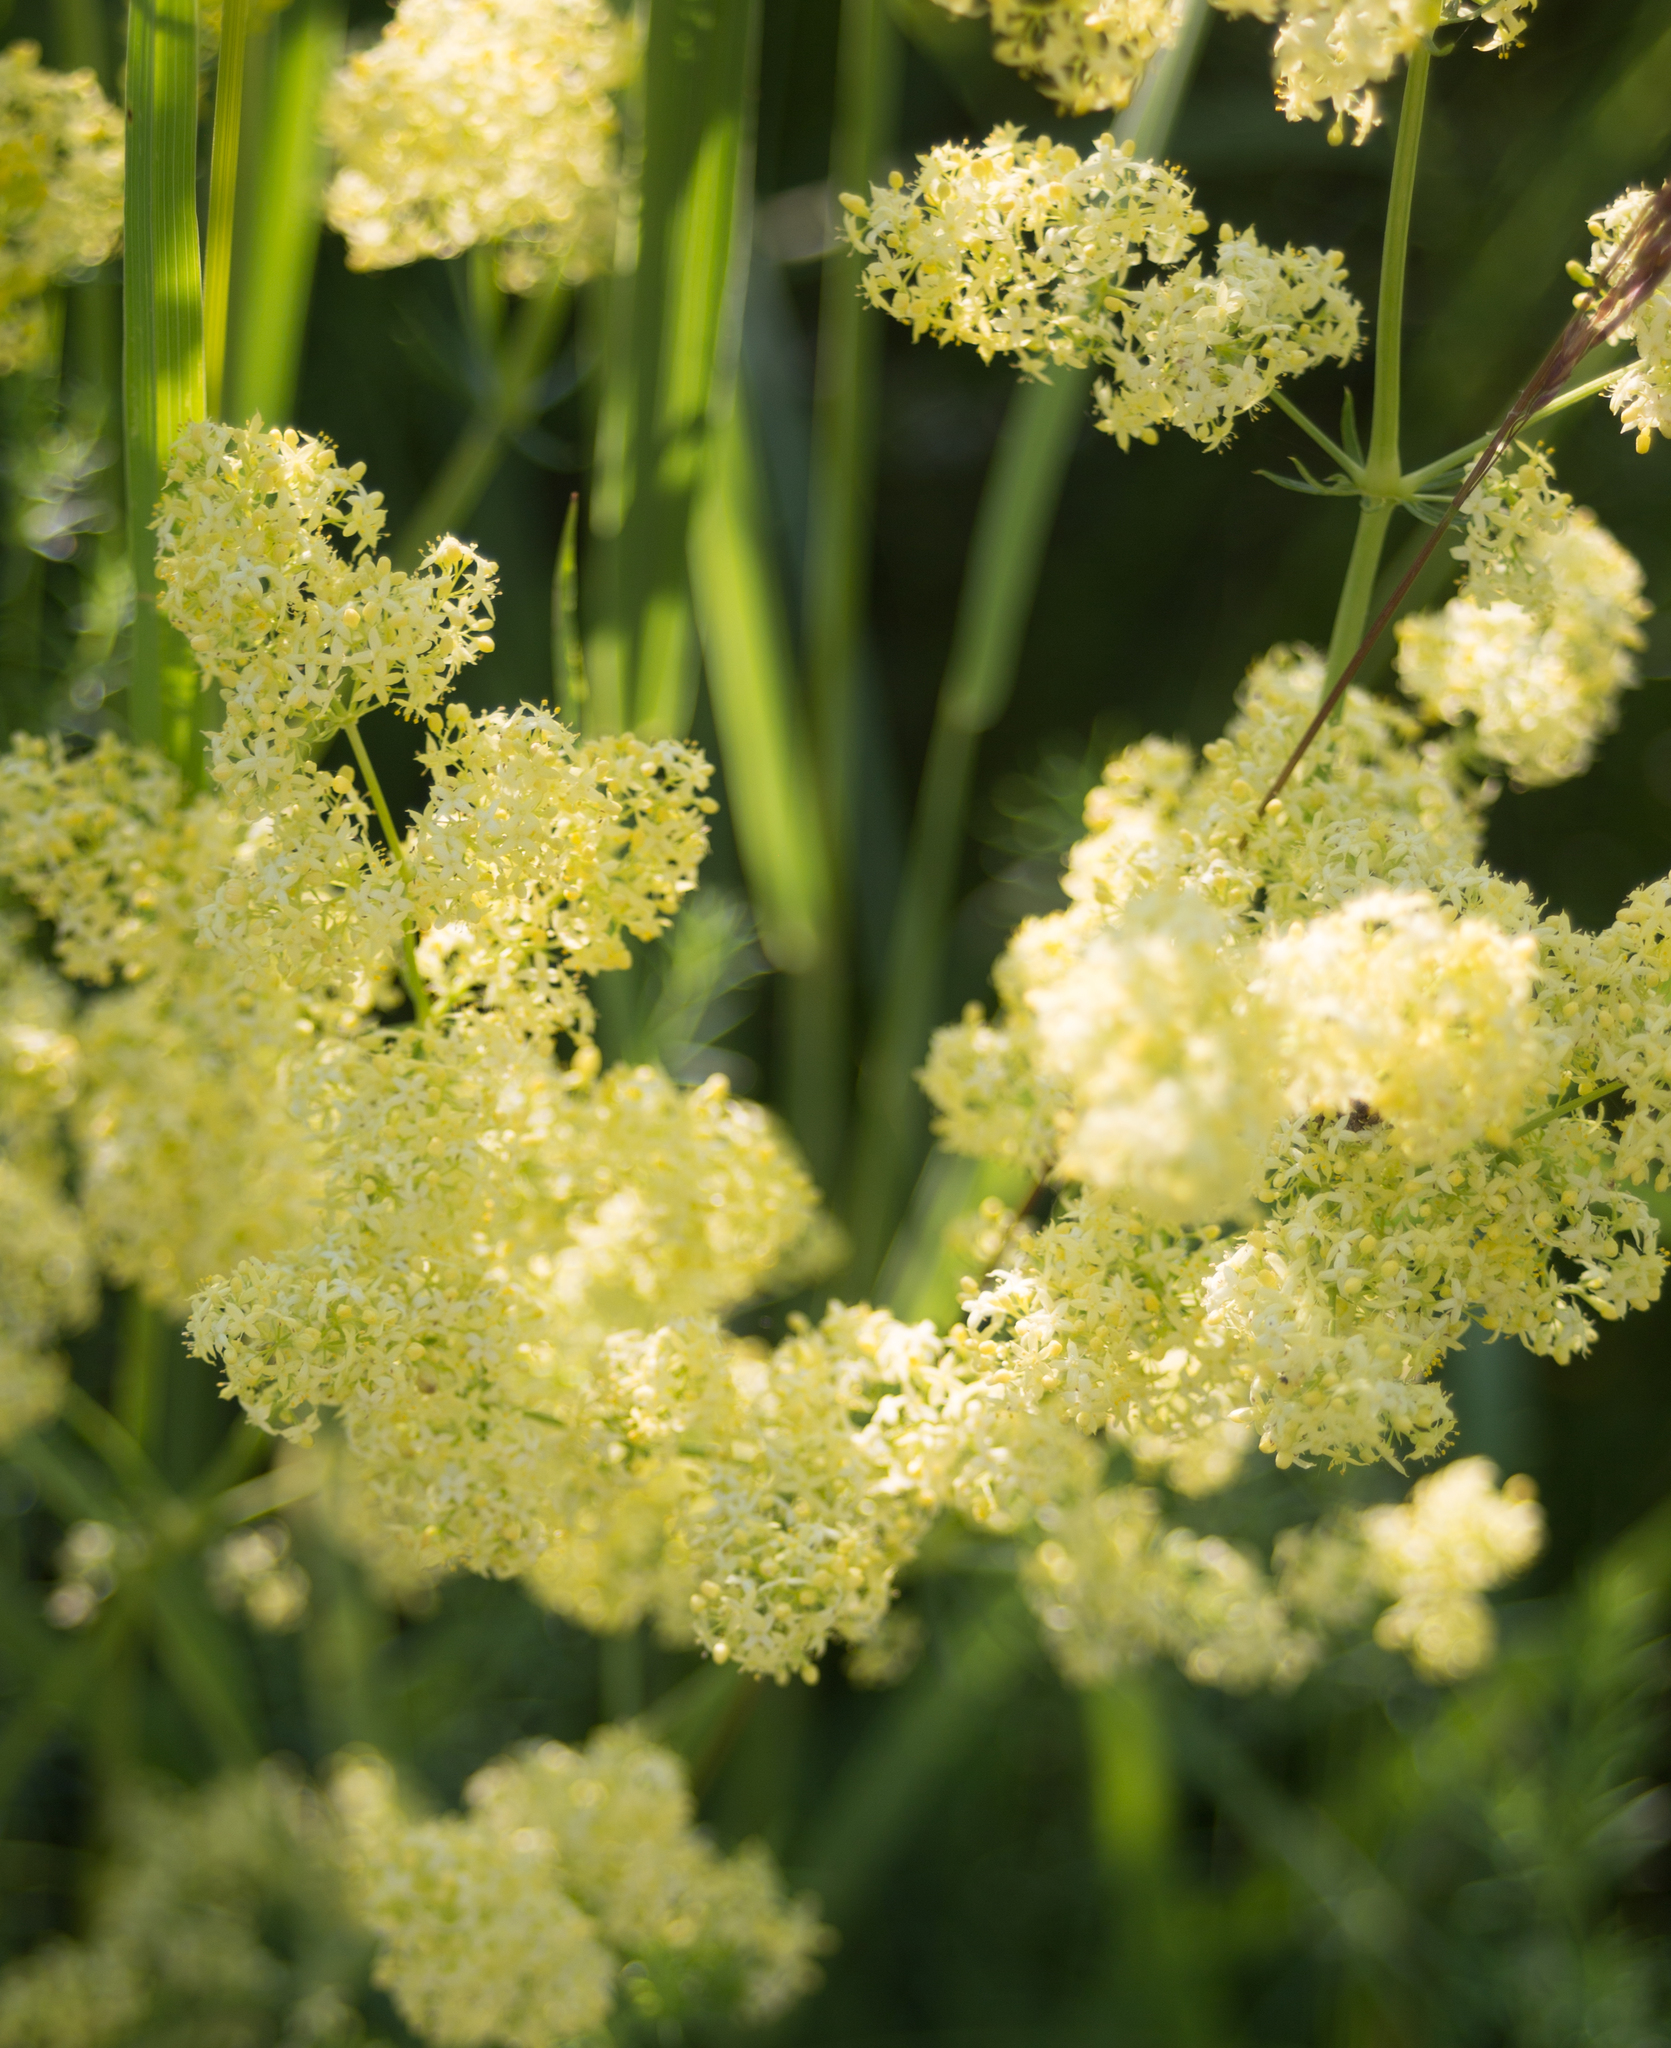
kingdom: Plantae
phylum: Tracheophyta
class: Magnoliopsida
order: Gentianales
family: Rubiaceae
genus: Galium
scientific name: Galium verum
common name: Lady's bedstraw
